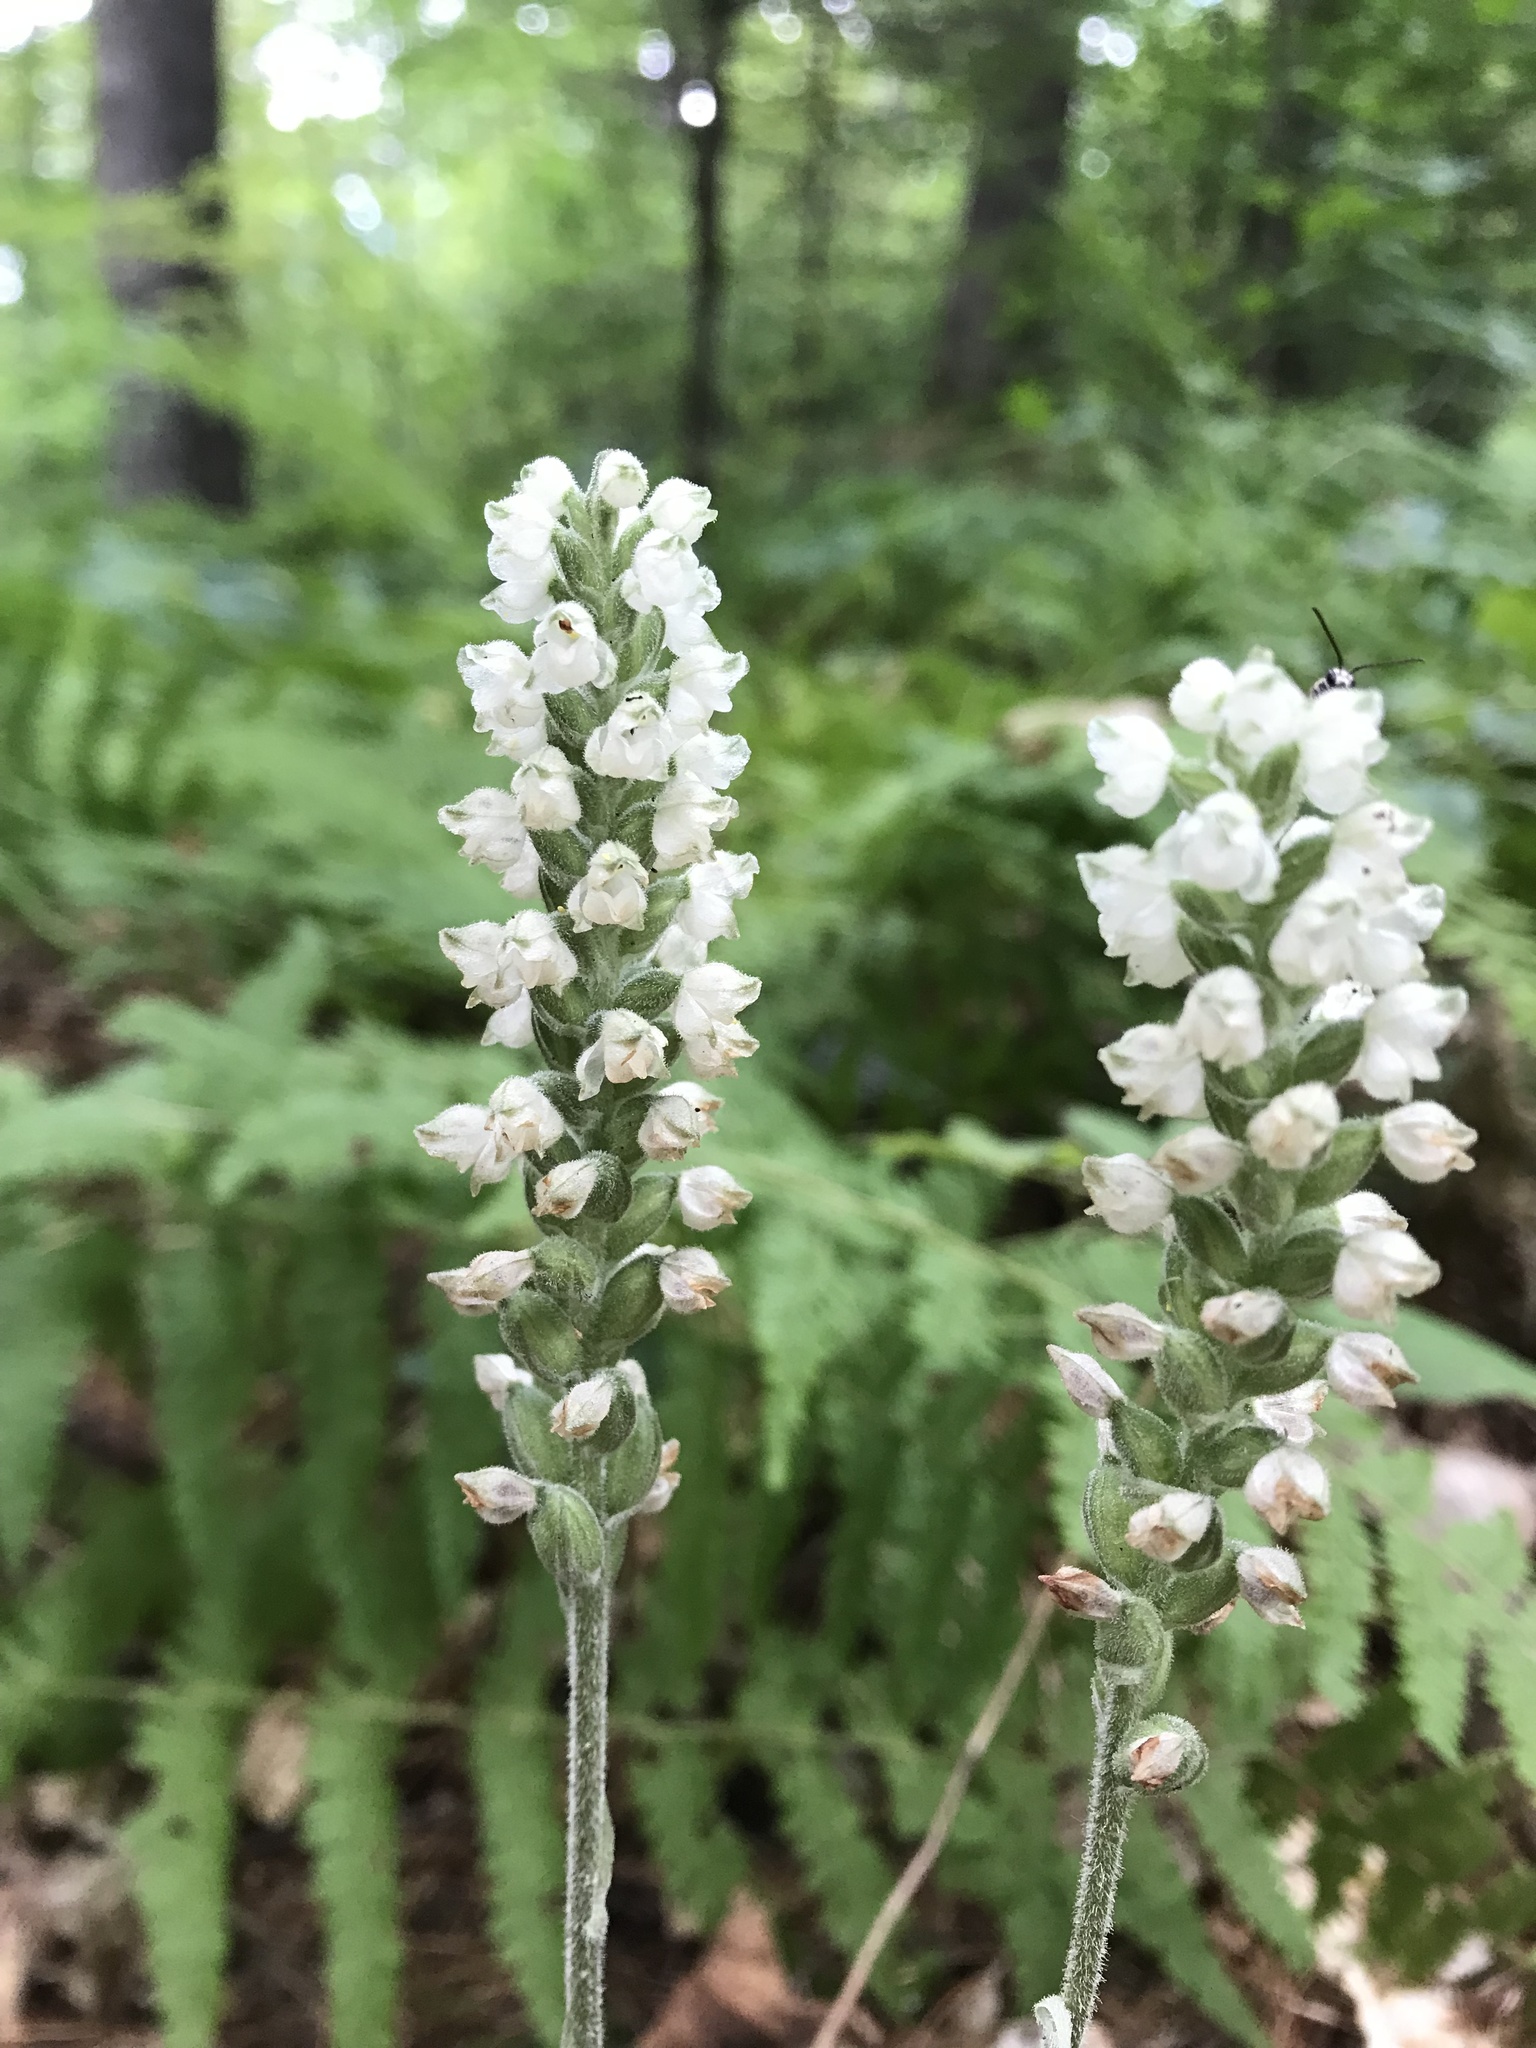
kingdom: Plantae
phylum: Tracheophyta
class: Liliopsida
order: Asparagales
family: Orchidaceae
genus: Goodyera
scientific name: Goodyera pubescens
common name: Downy rattlesnake-plantain
